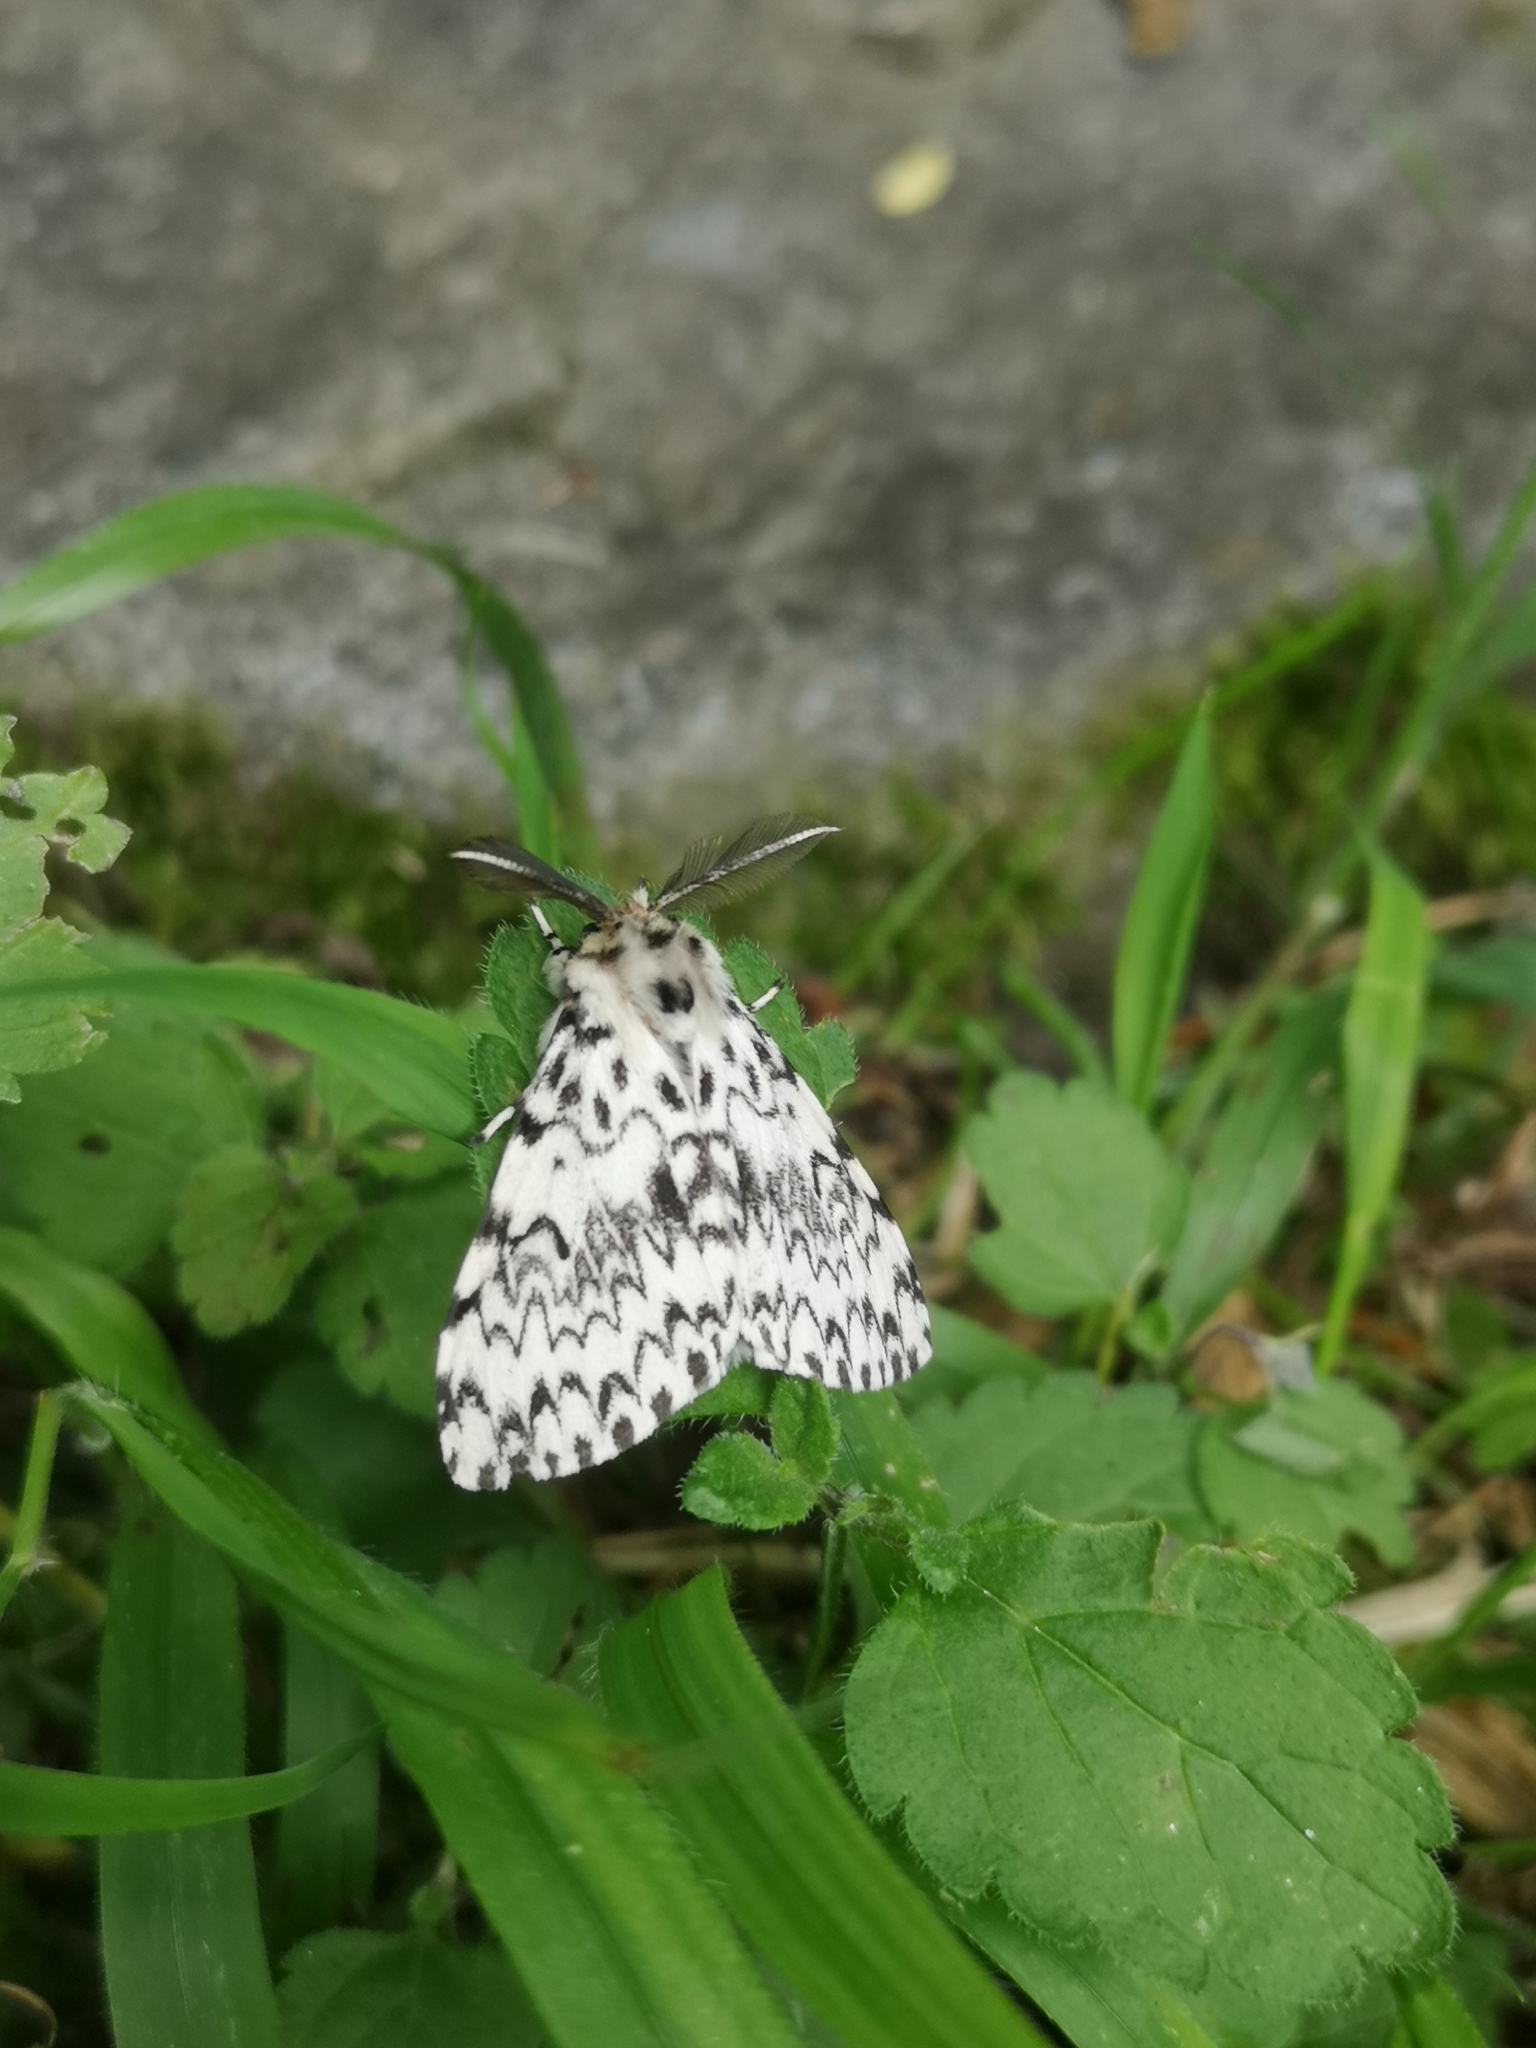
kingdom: Animalia
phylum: Arthropoda
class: Insecta
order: Lepidoptera
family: Erebidae
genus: Lymantria
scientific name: Lymantria monacha
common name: Black arches
